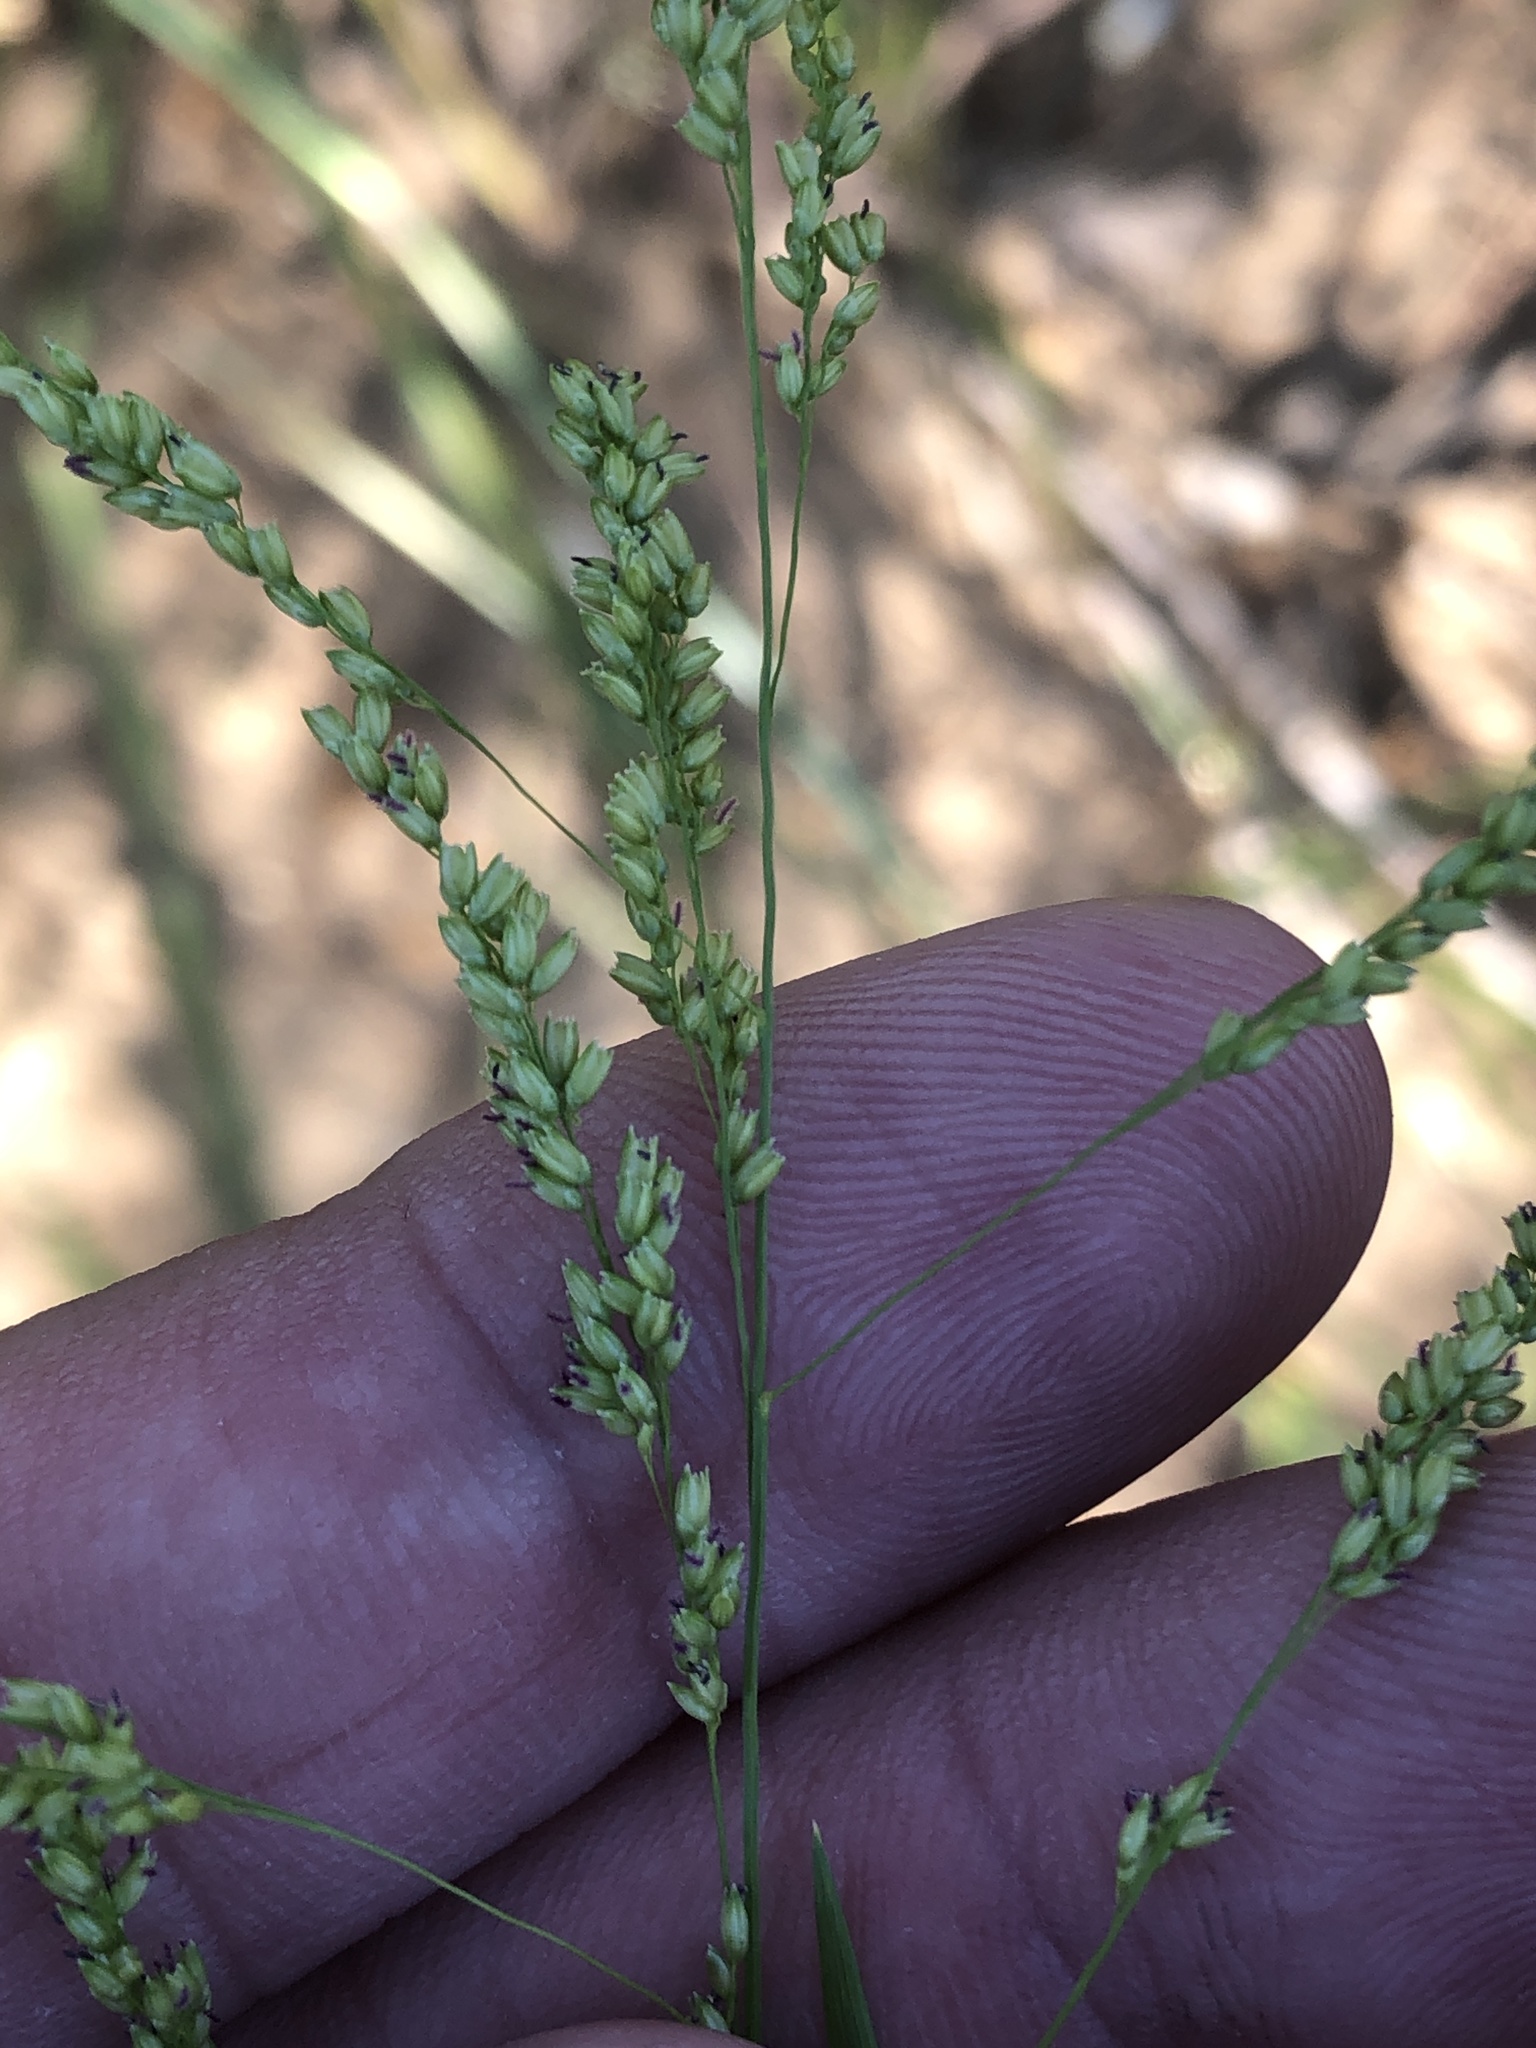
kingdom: Plantae
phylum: Tracheophyta
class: Liliopsida
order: Poales
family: Poaceae
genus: Steinchisma
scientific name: Steinchisma hians
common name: Gaping panic grass
